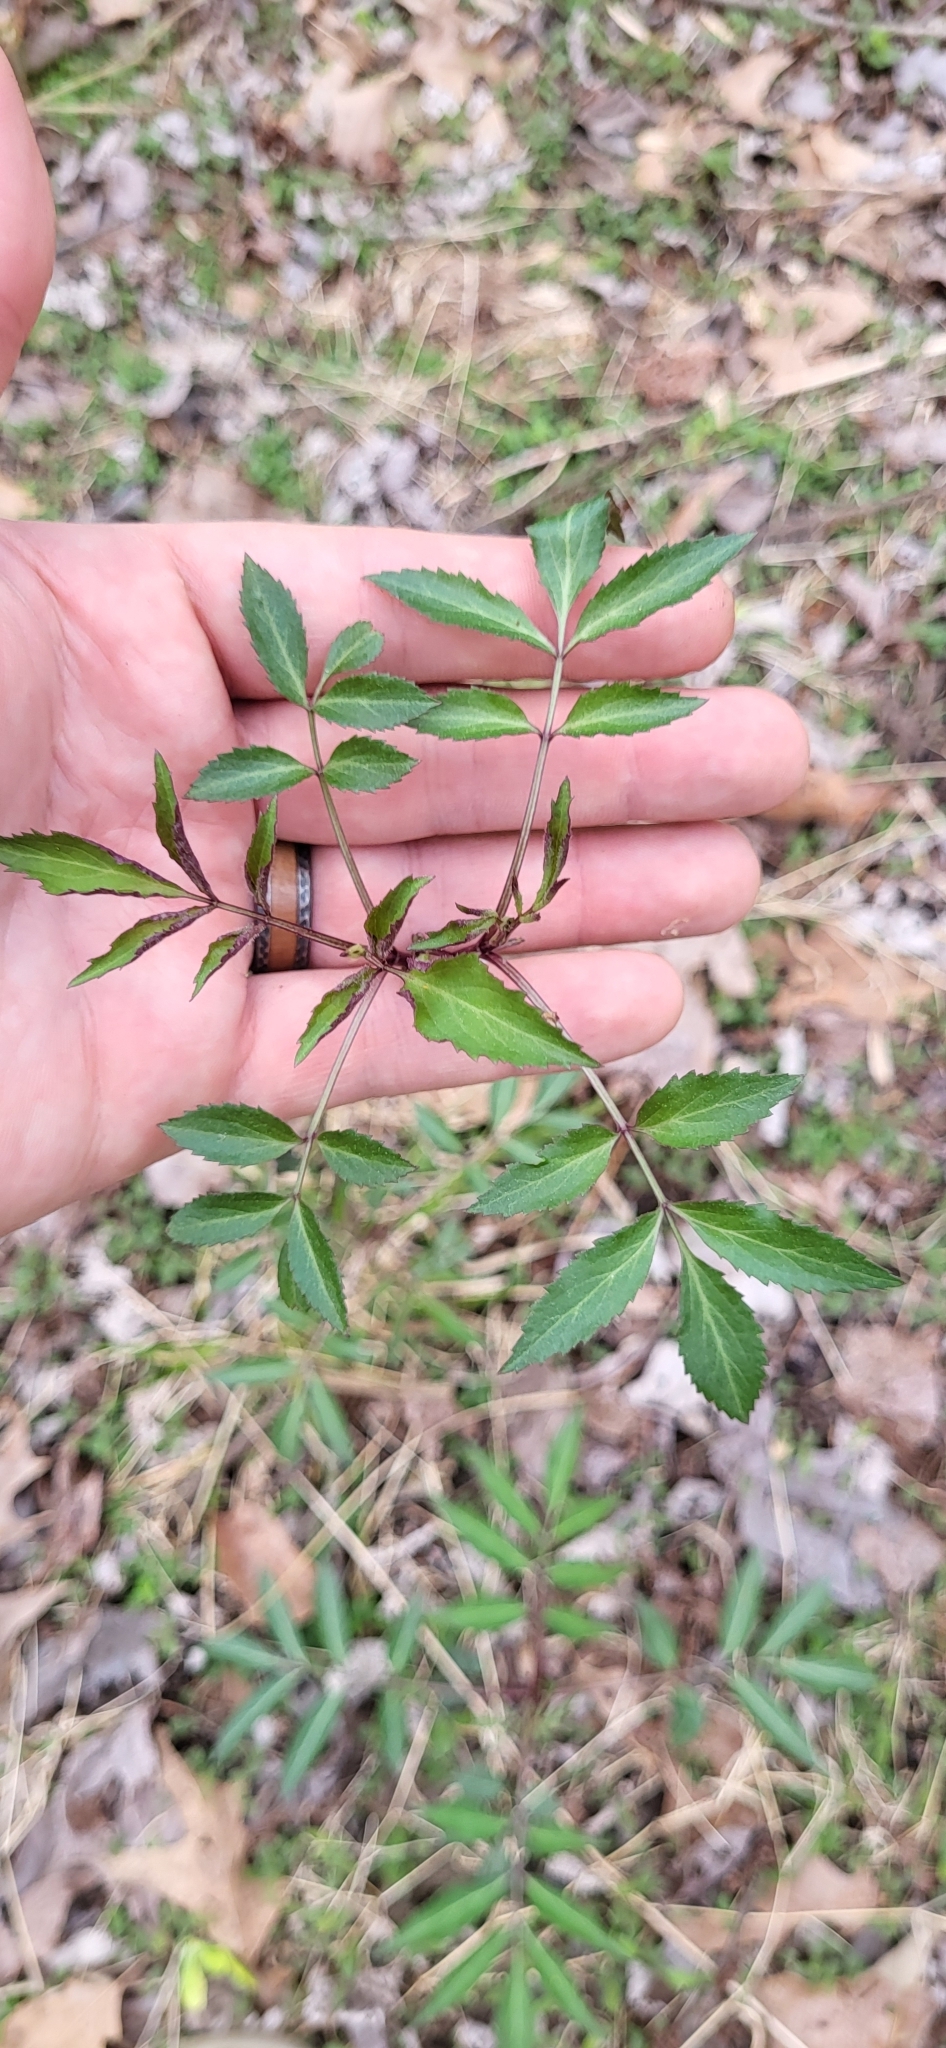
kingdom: Plantae
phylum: Tracheophyta
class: Magnoliopsida
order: Dipsacales
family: Viburnaceae
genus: Sambucus
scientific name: Sambucus canadensis
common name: American elder
